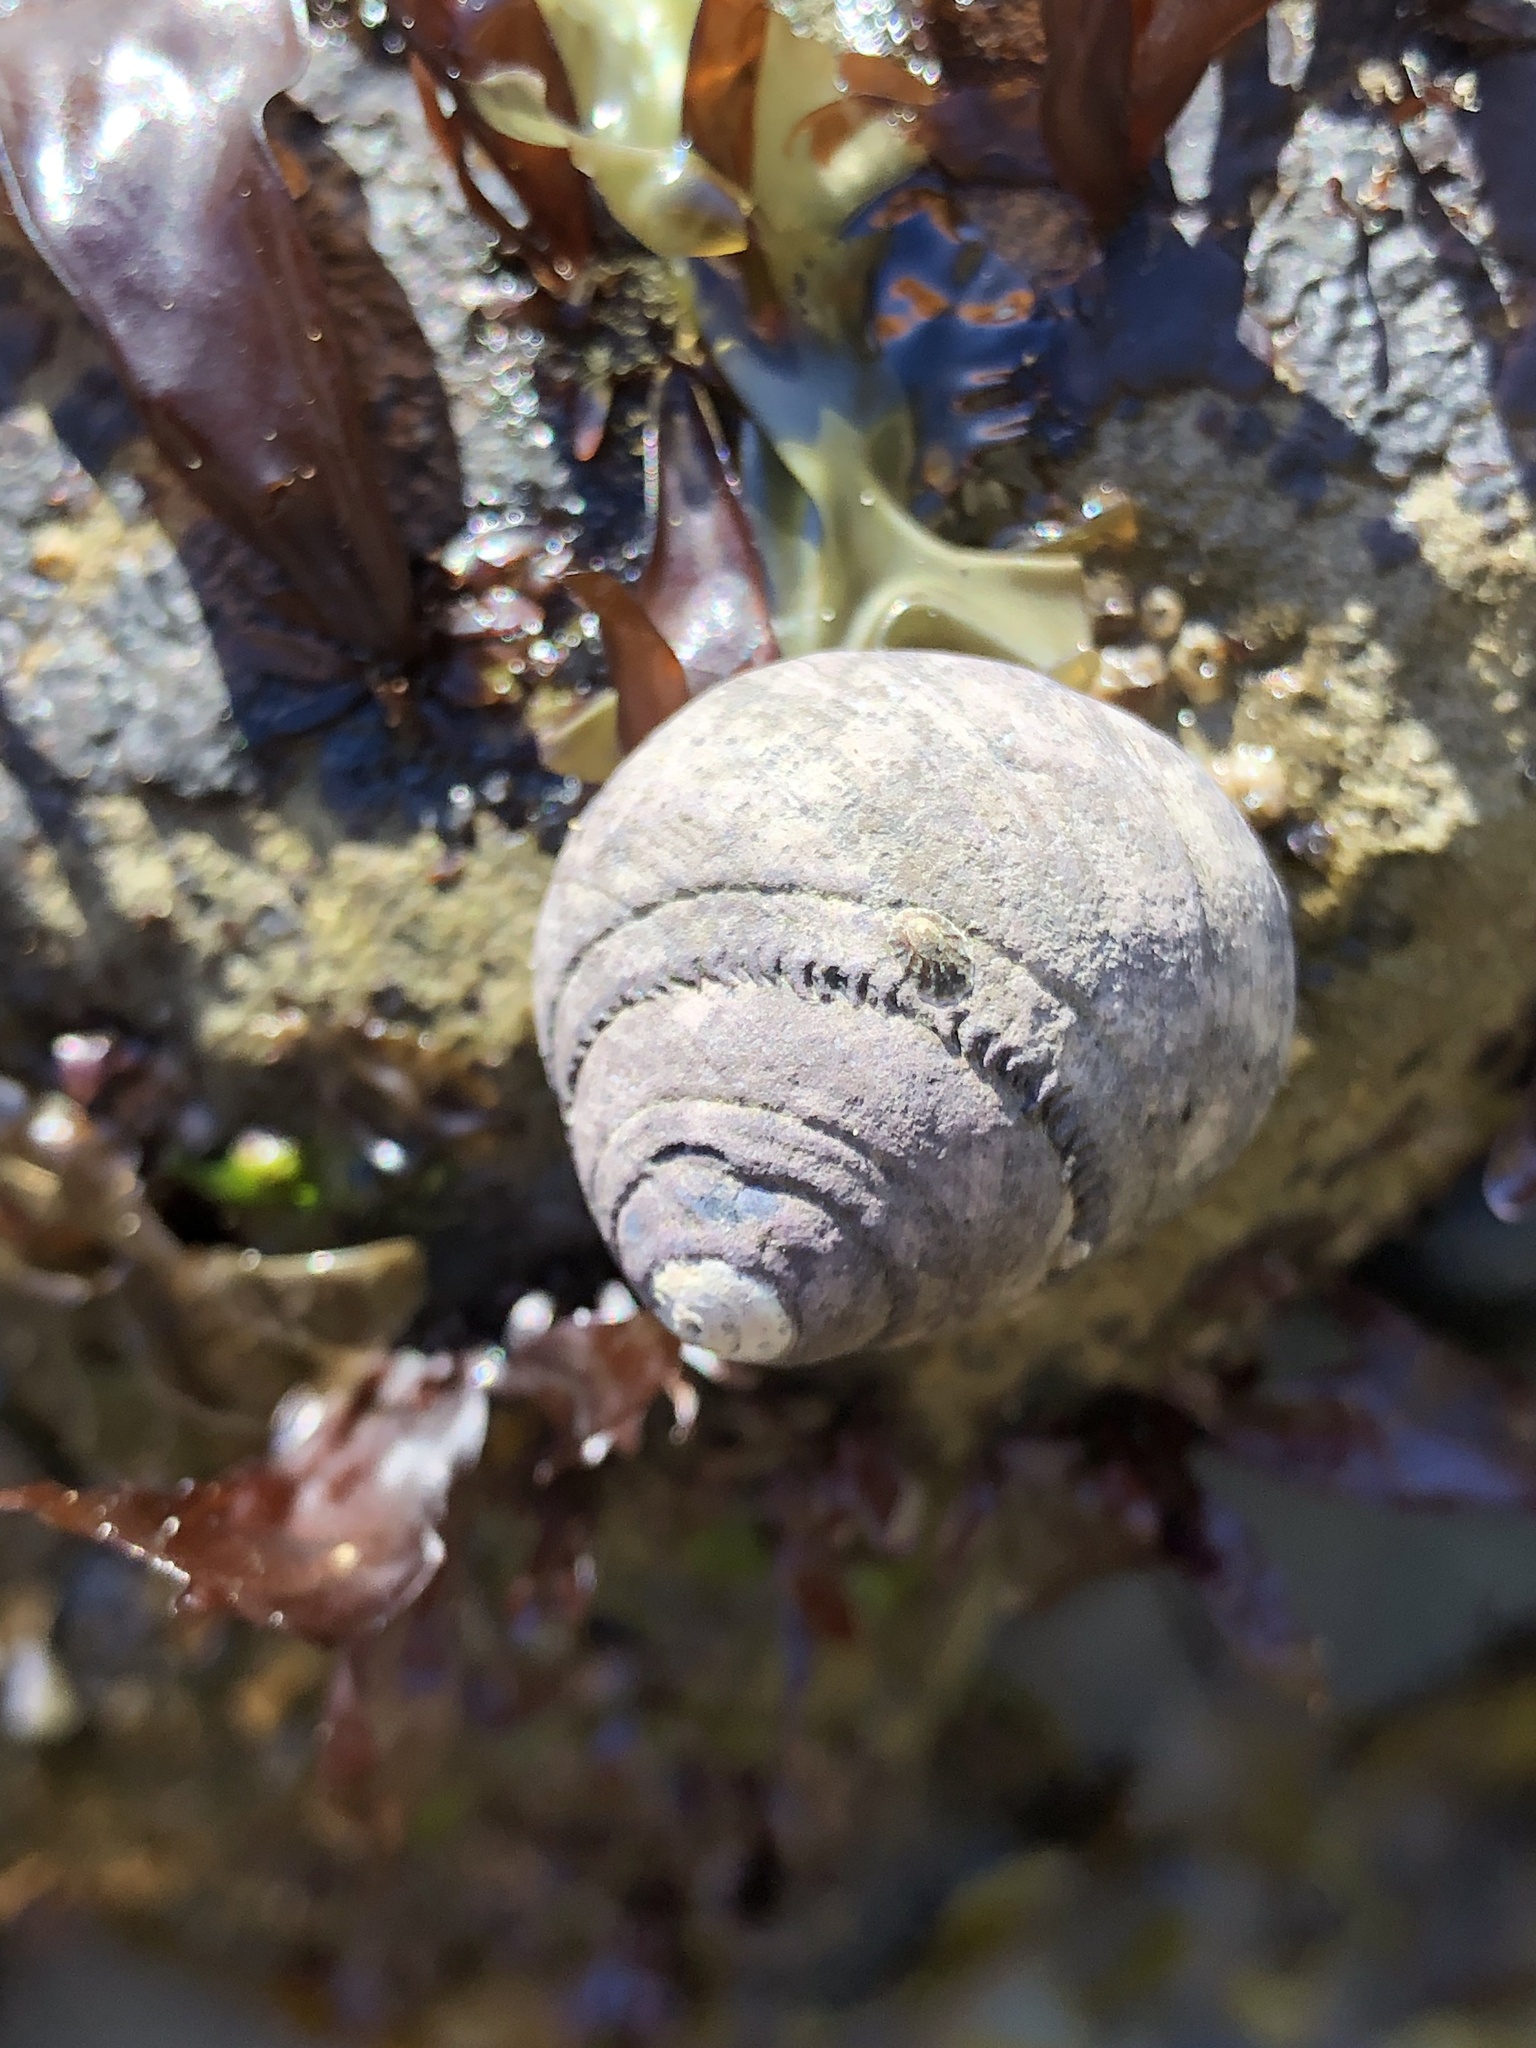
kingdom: Animalia
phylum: Mollusca
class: Gastropoda
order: Trochida
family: Tegulidae
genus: Tegula
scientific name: Tegula funebralis
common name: Black tegula
